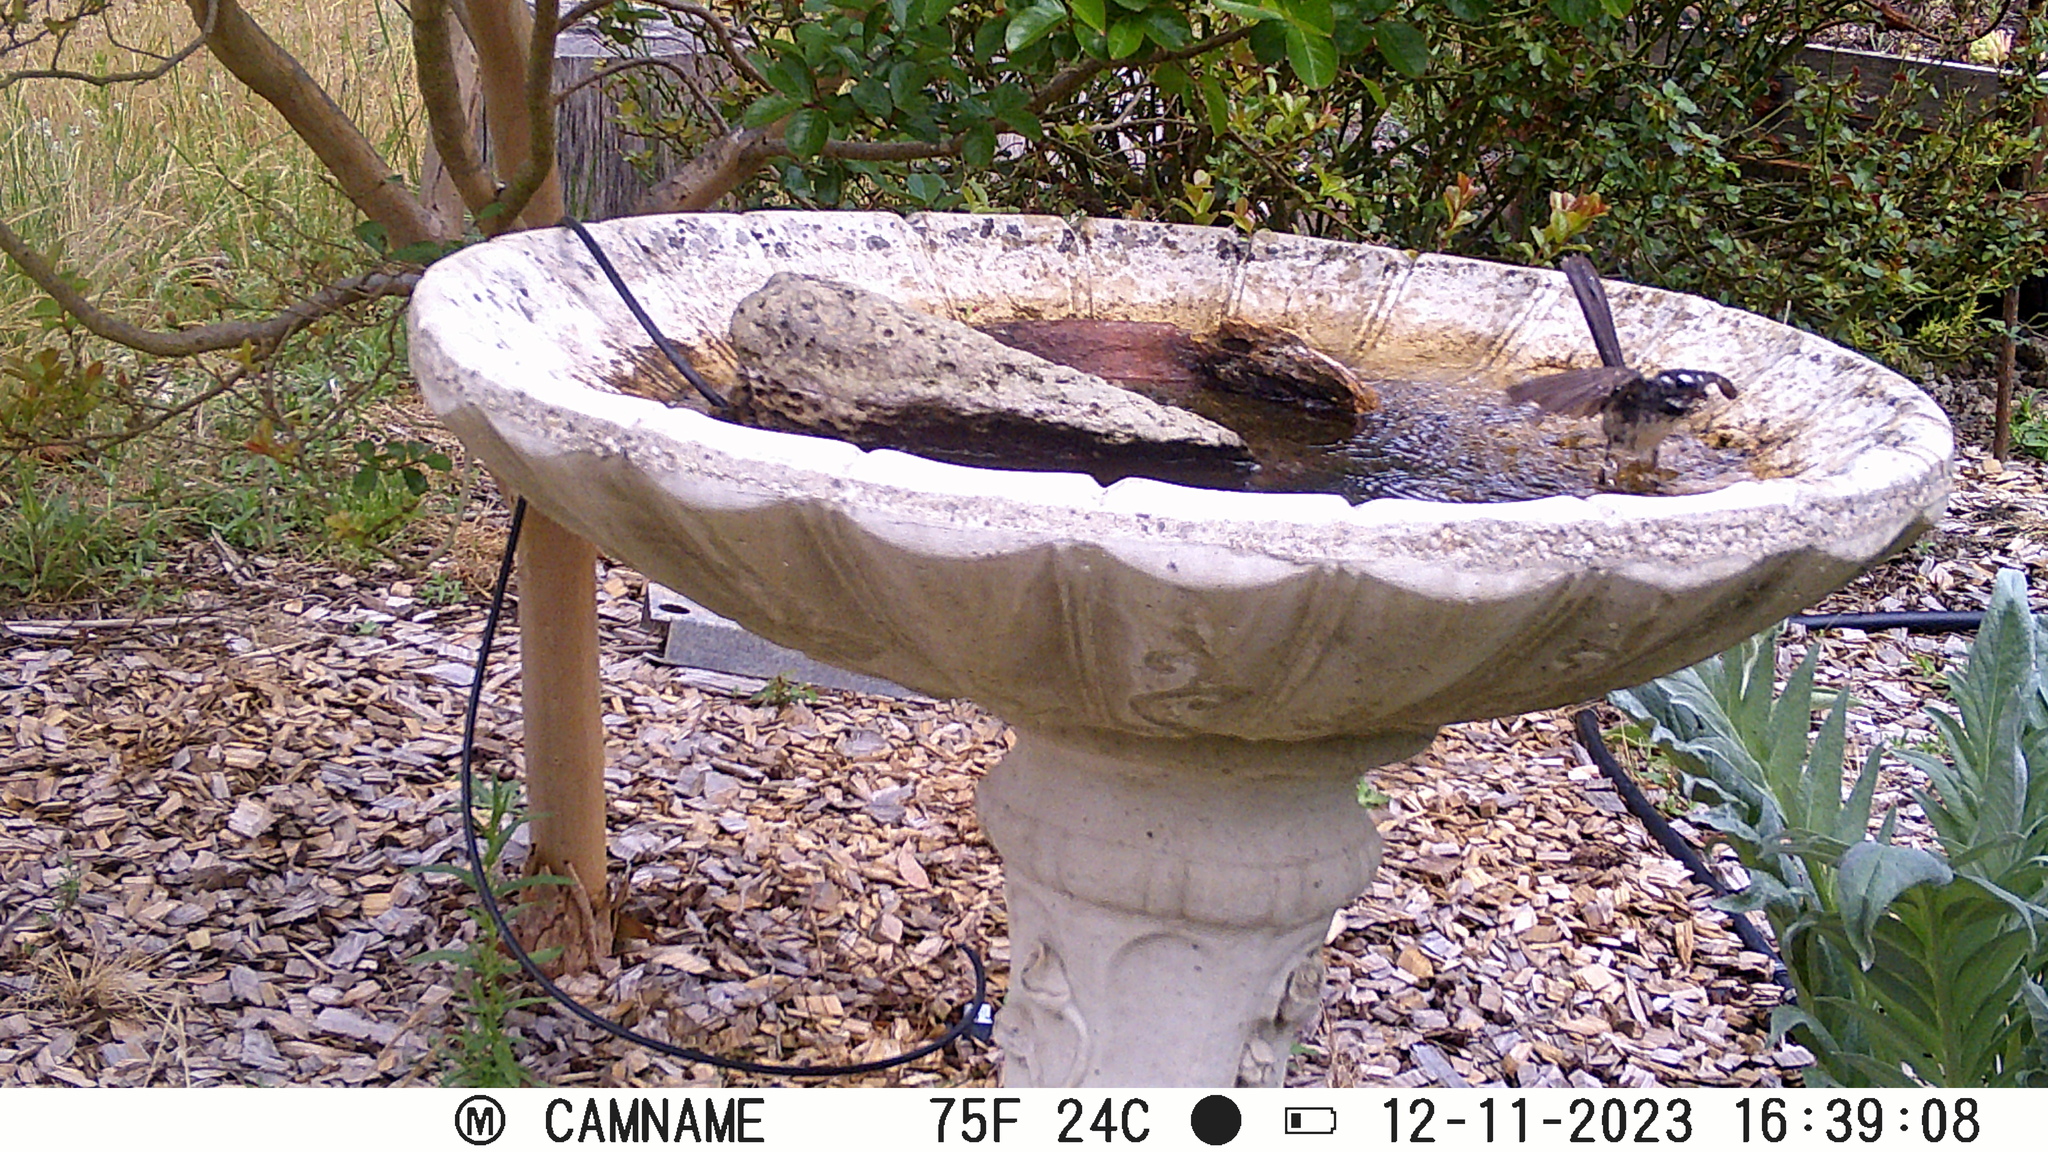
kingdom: Animalia
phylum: Chordata
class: Aves
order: Passeriformes
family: Rhipiduridae
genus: Rhipidura
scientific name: Rhipidura albiscapa
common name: Grey fantail
